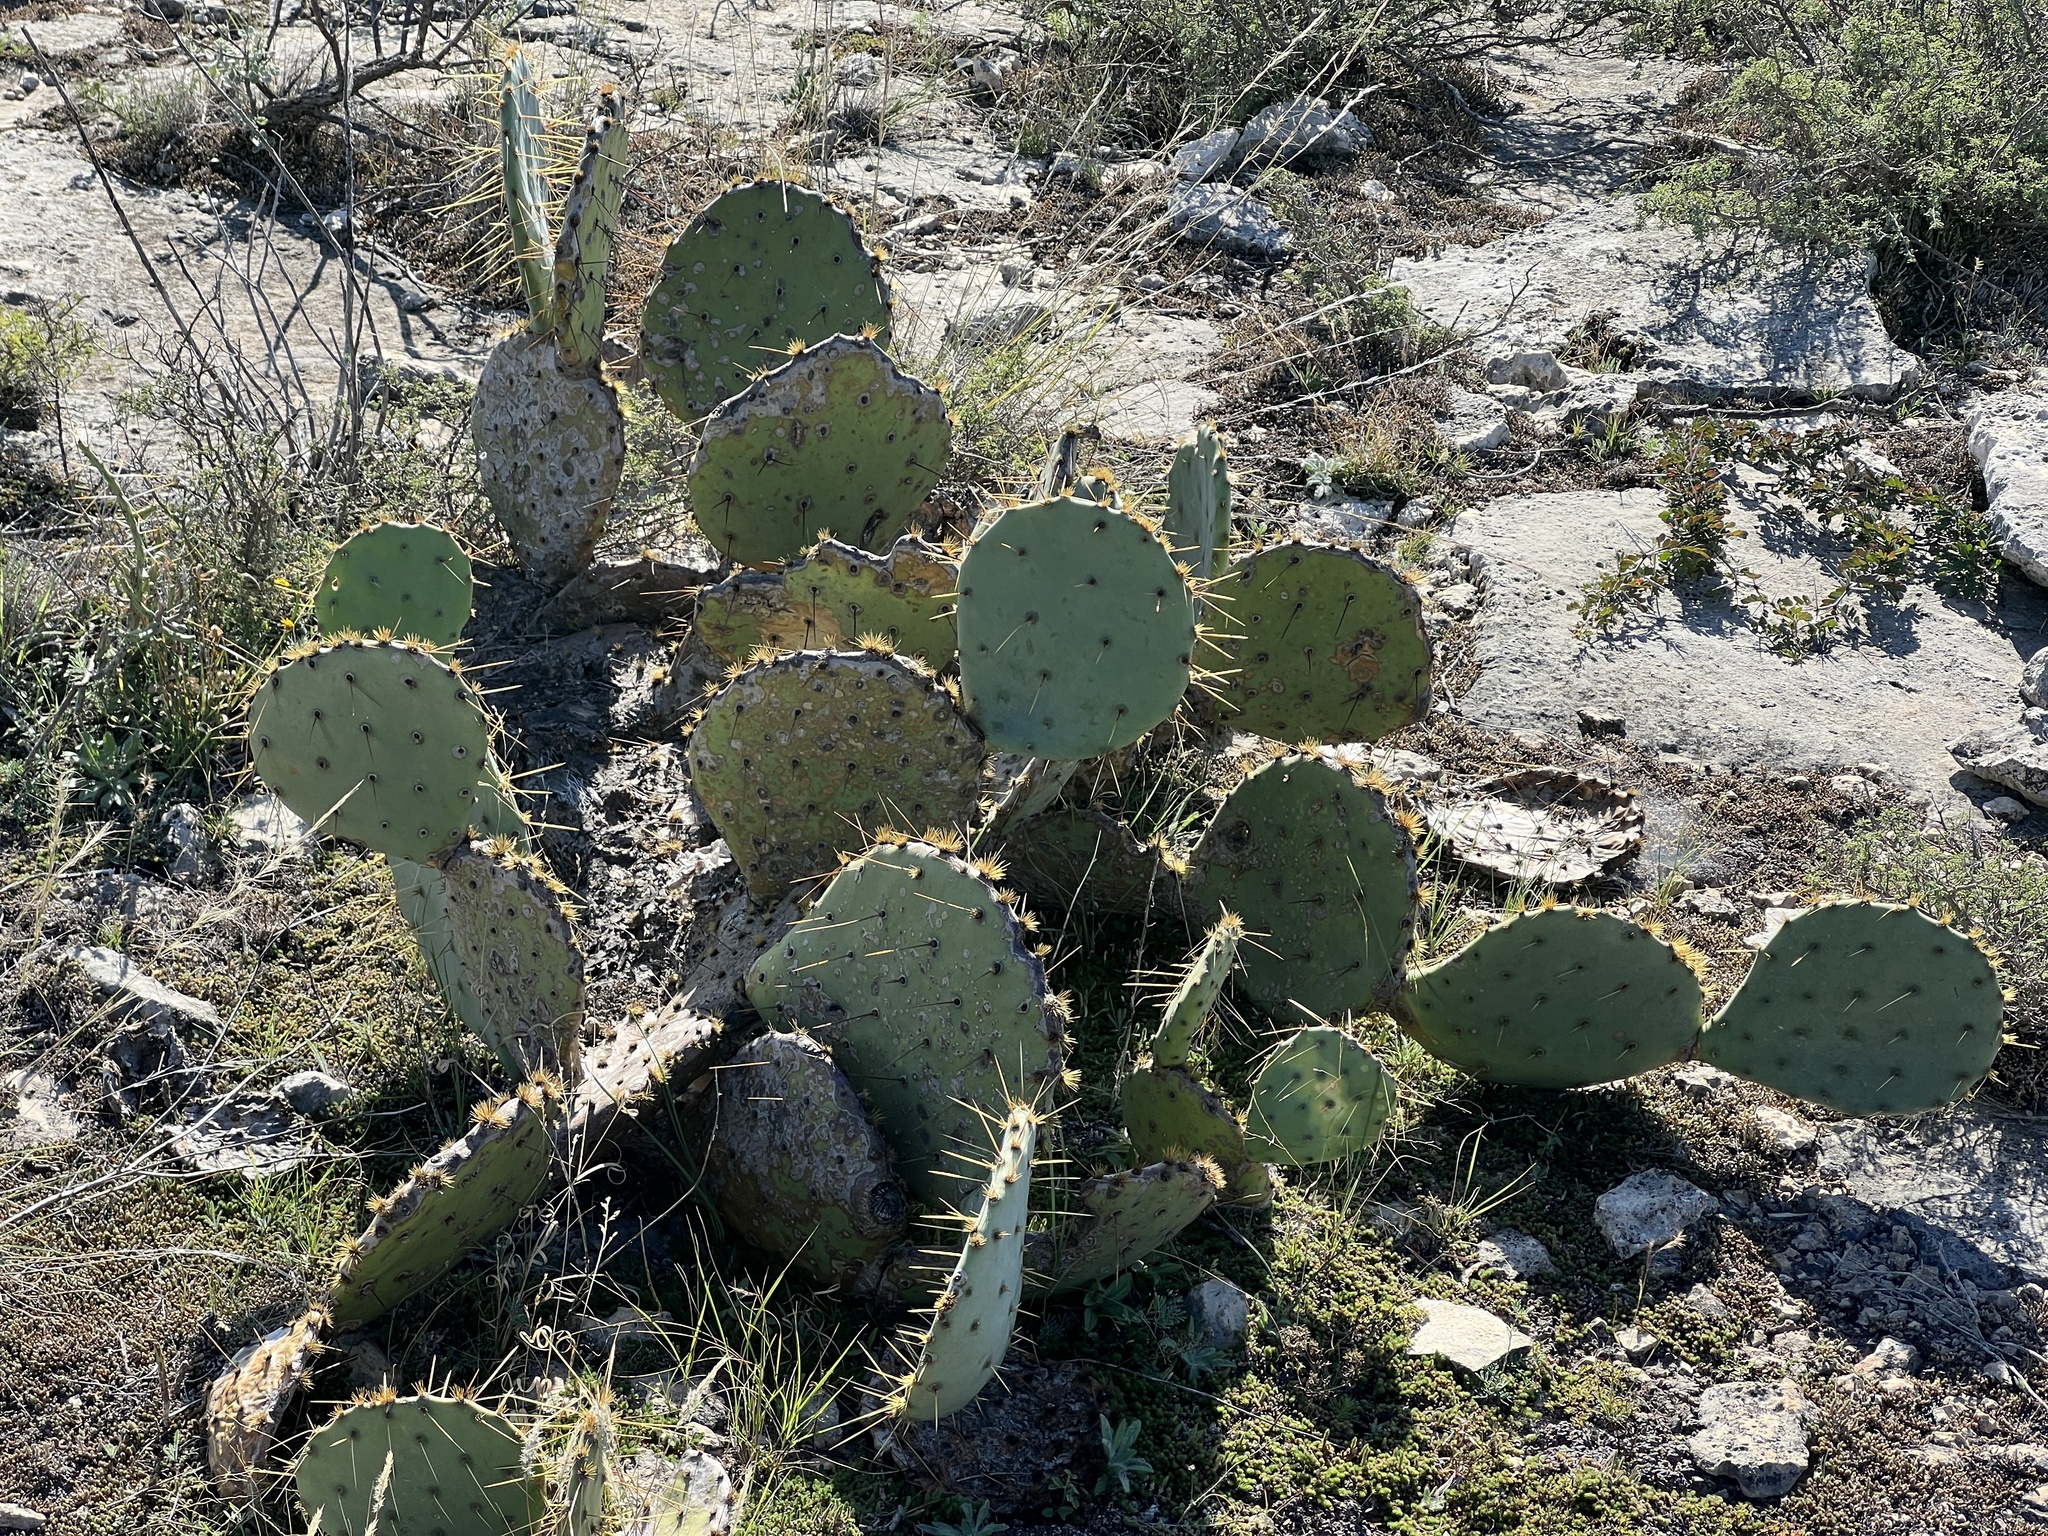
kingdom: Plantae
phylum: Tracheophyta
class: Magnoliopsida
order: Caryophyllales
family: Cactaceae
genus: Opuntia
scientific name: Opuntia engelmannii
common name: Cactus-apple
